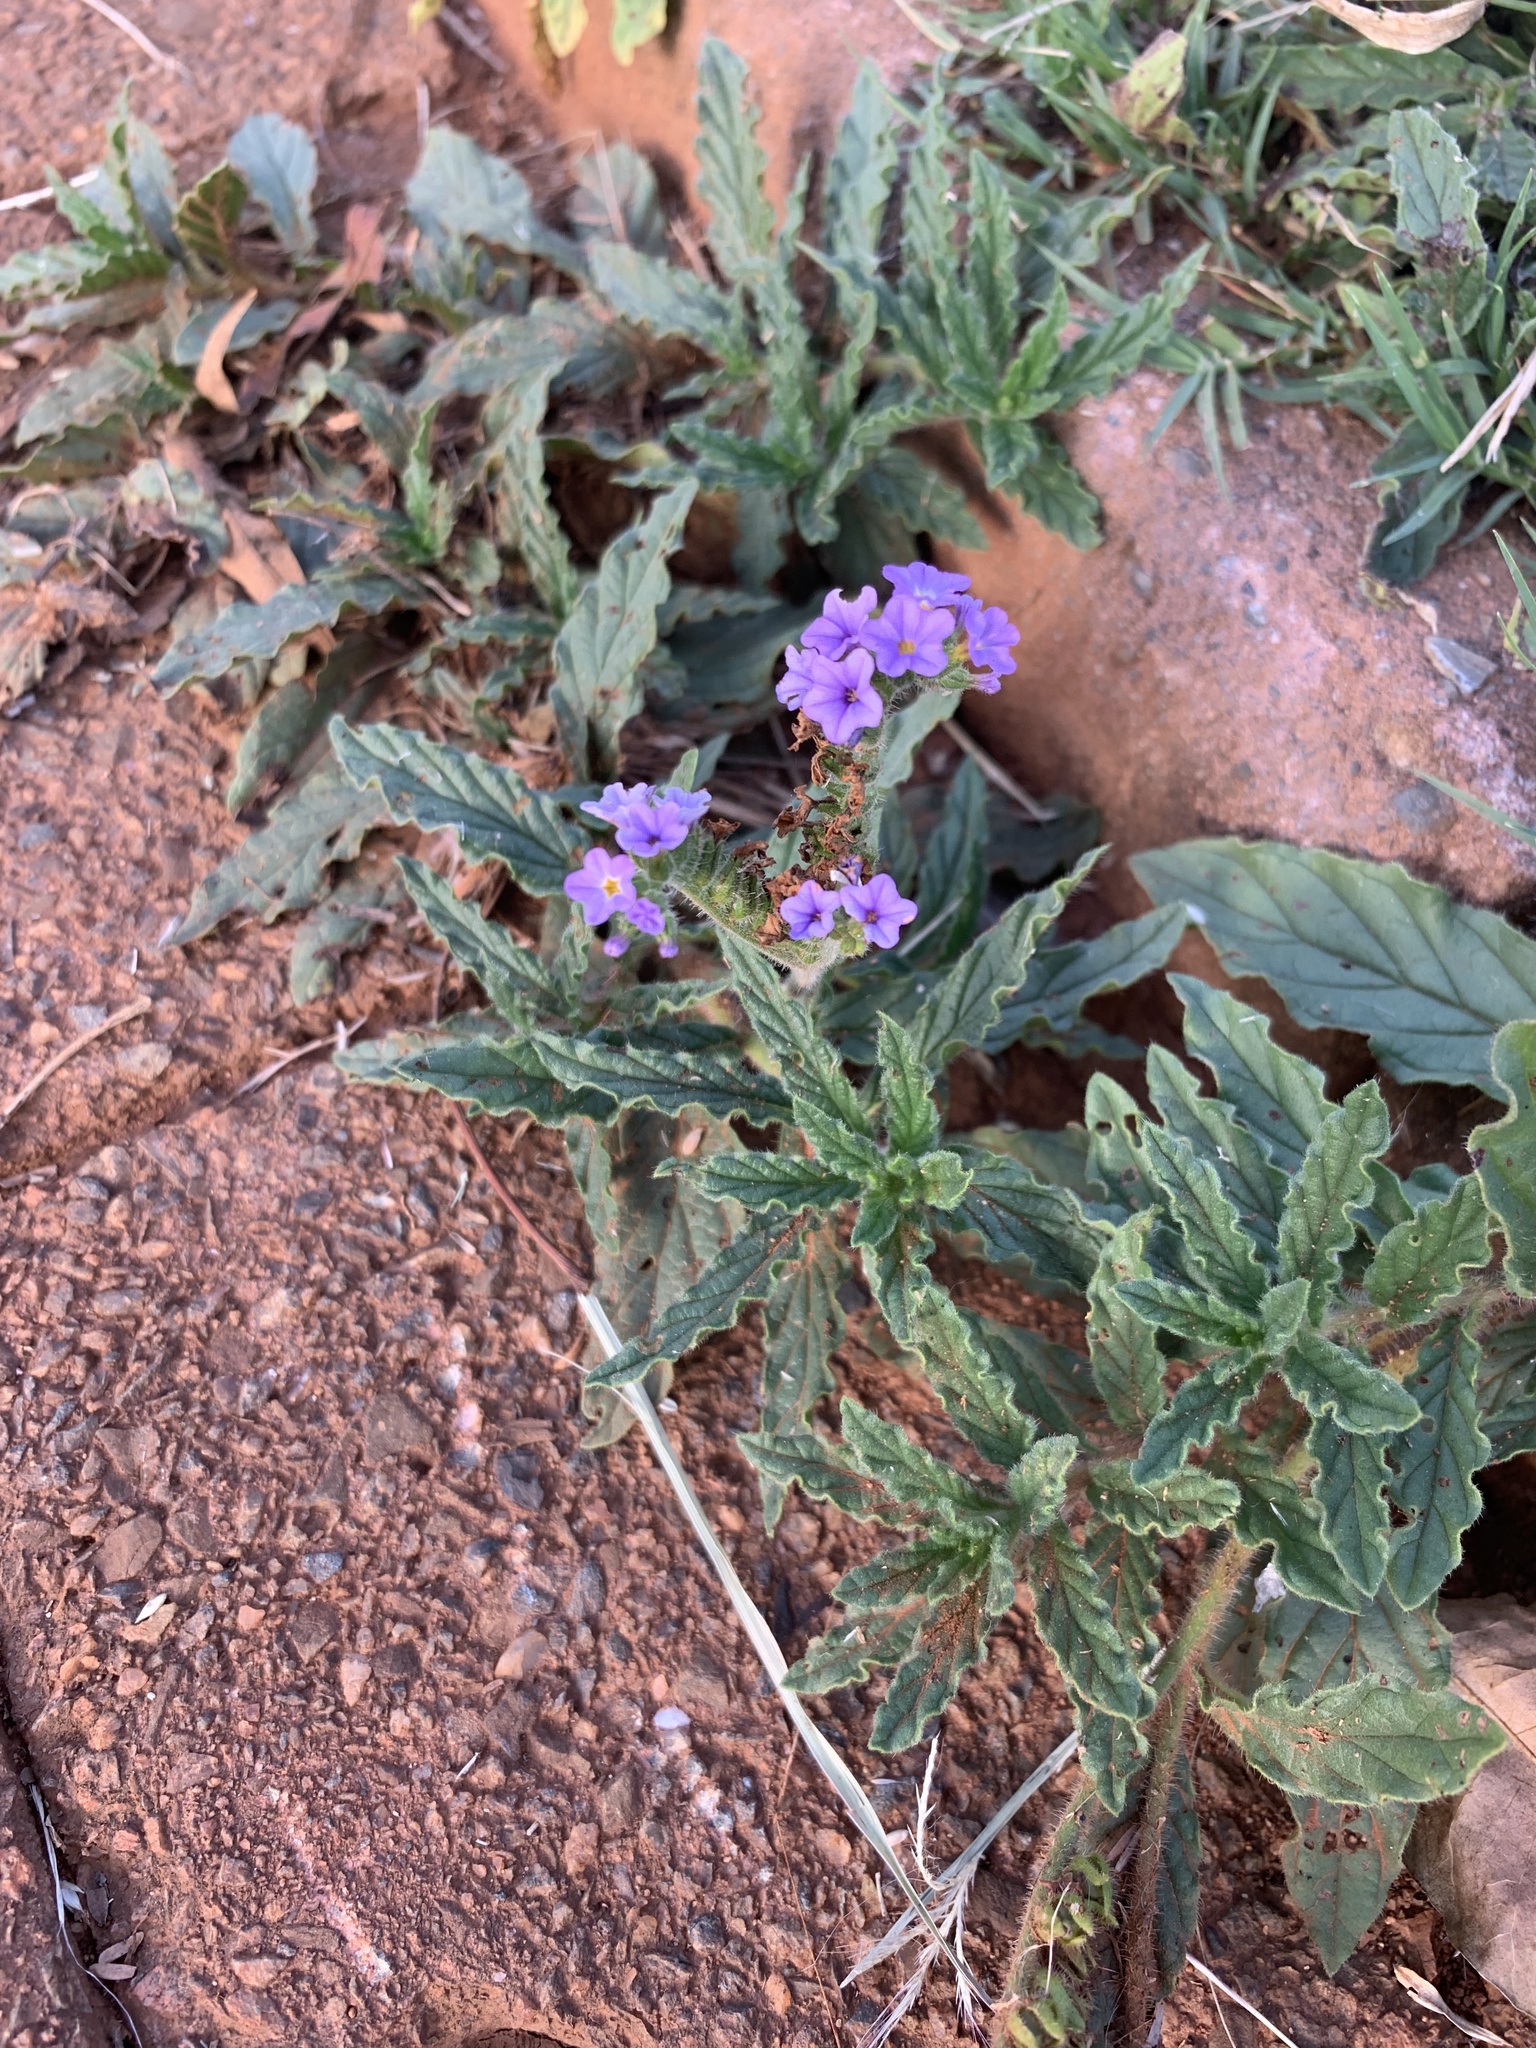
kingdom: Plantae
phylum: Tracheophyta
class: Magnoliopsida
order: Boraginales
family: Heliotropiaceae
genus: Heliotropium
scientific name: Heliotropium amplexicaule
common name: Clasping heliotrope
